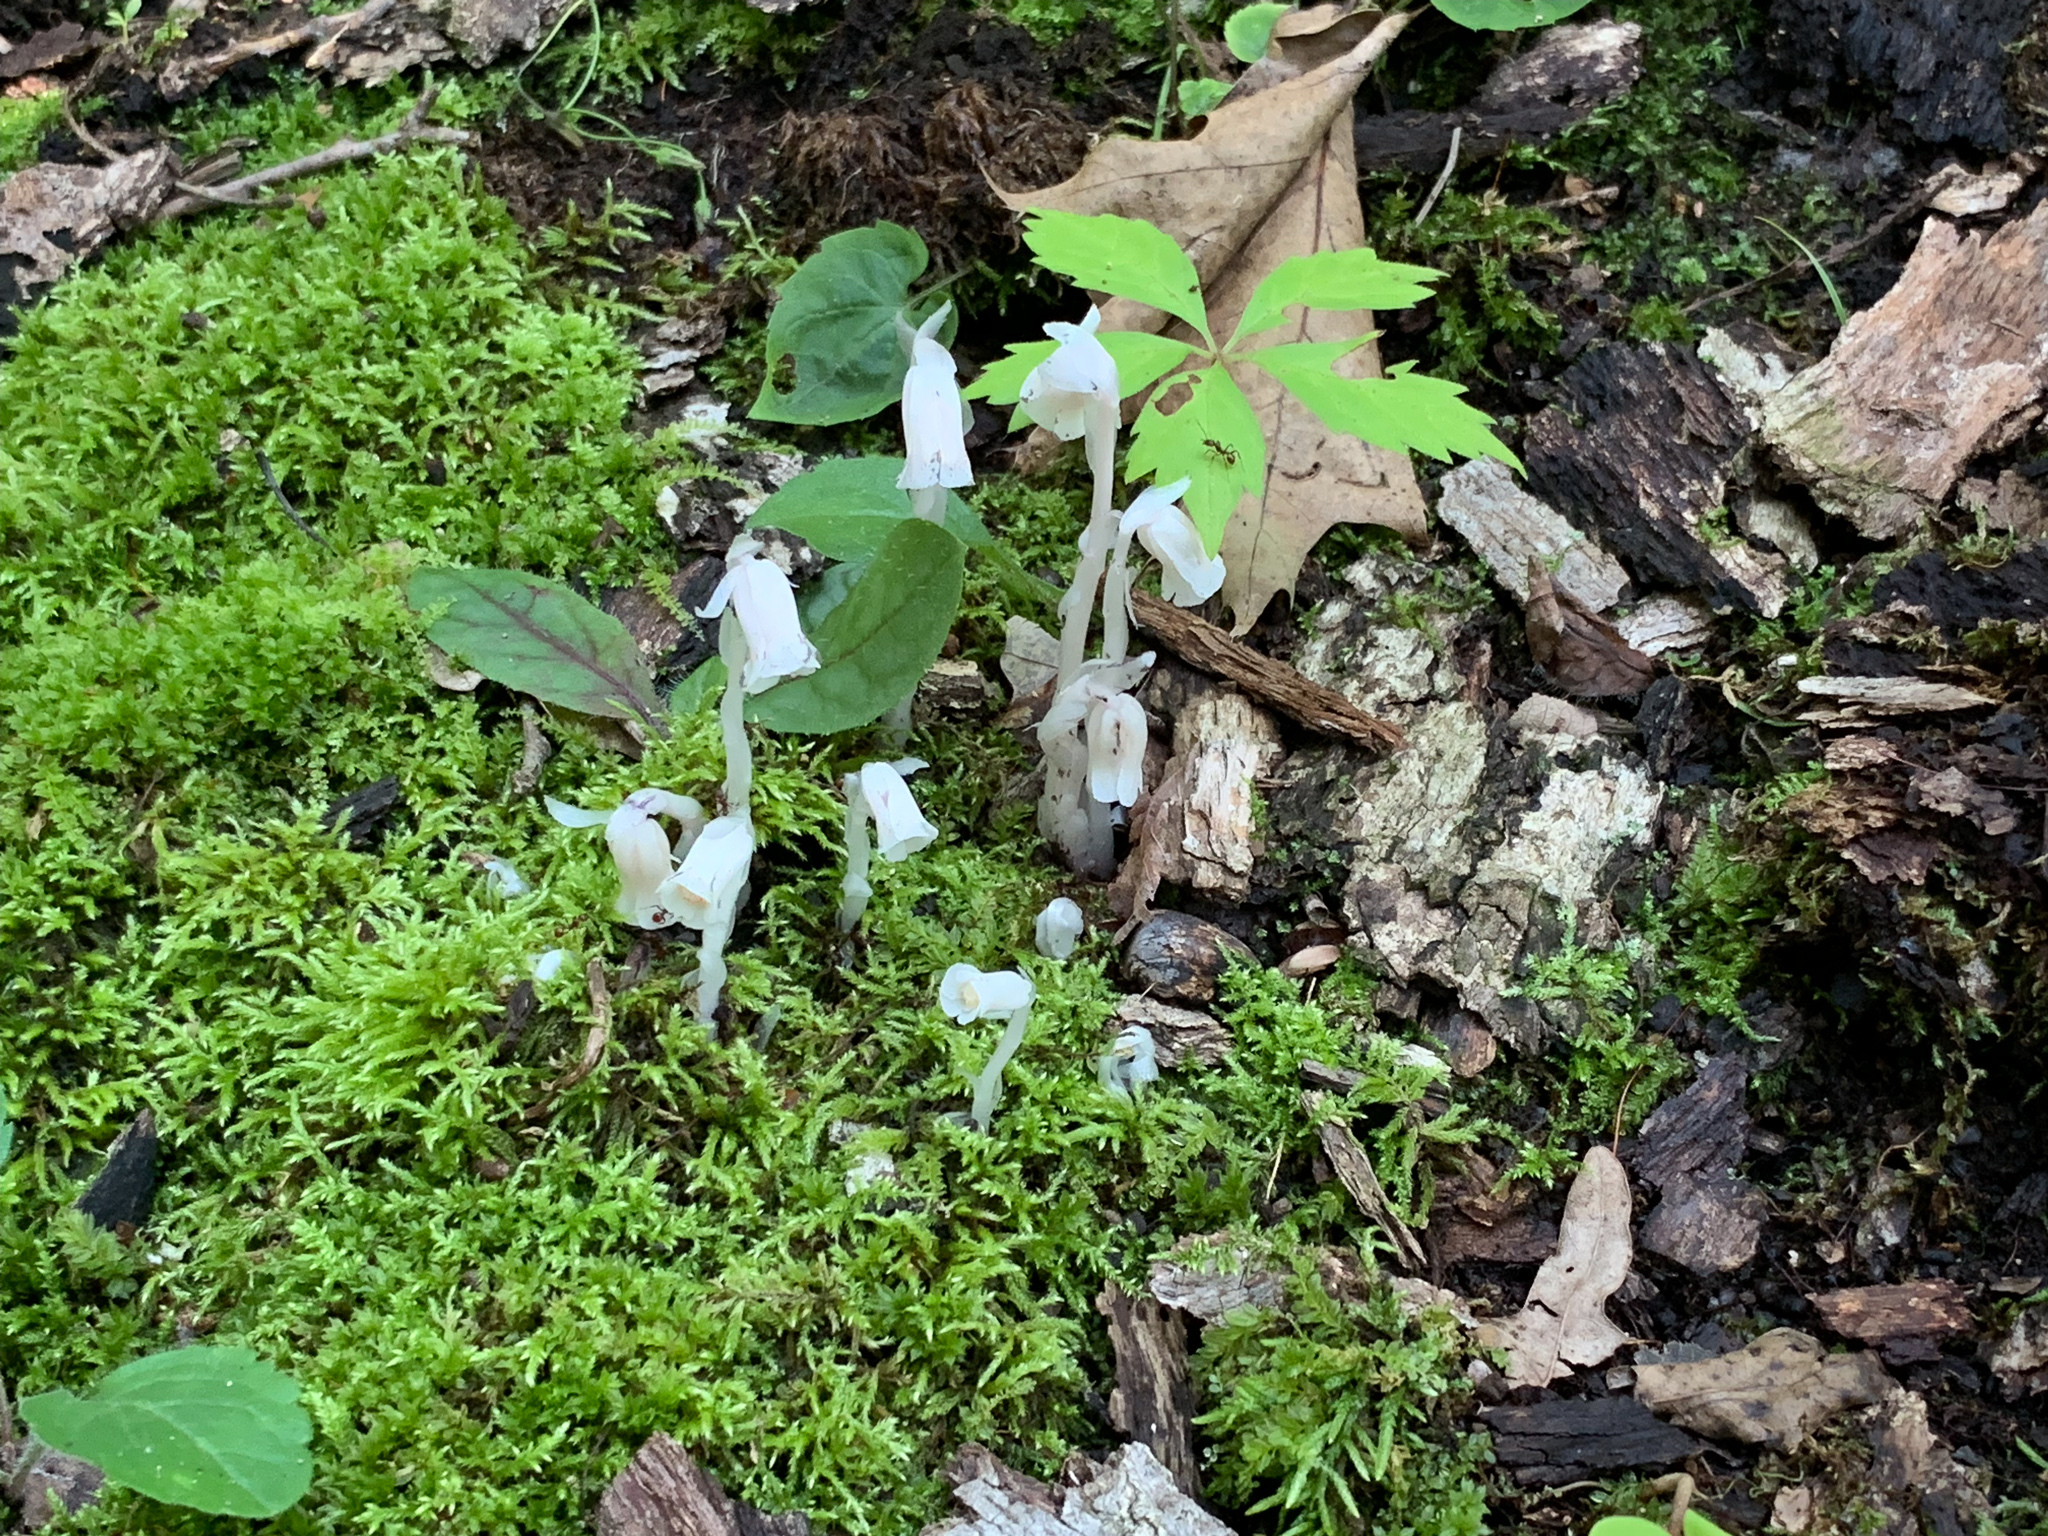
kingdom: Plantae
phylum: Tracheophyta
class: Magnoliopsida
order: Ericales
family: Ericaceae
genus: Monotropa
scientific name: Monotropa uniflora
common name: Convulsion root
